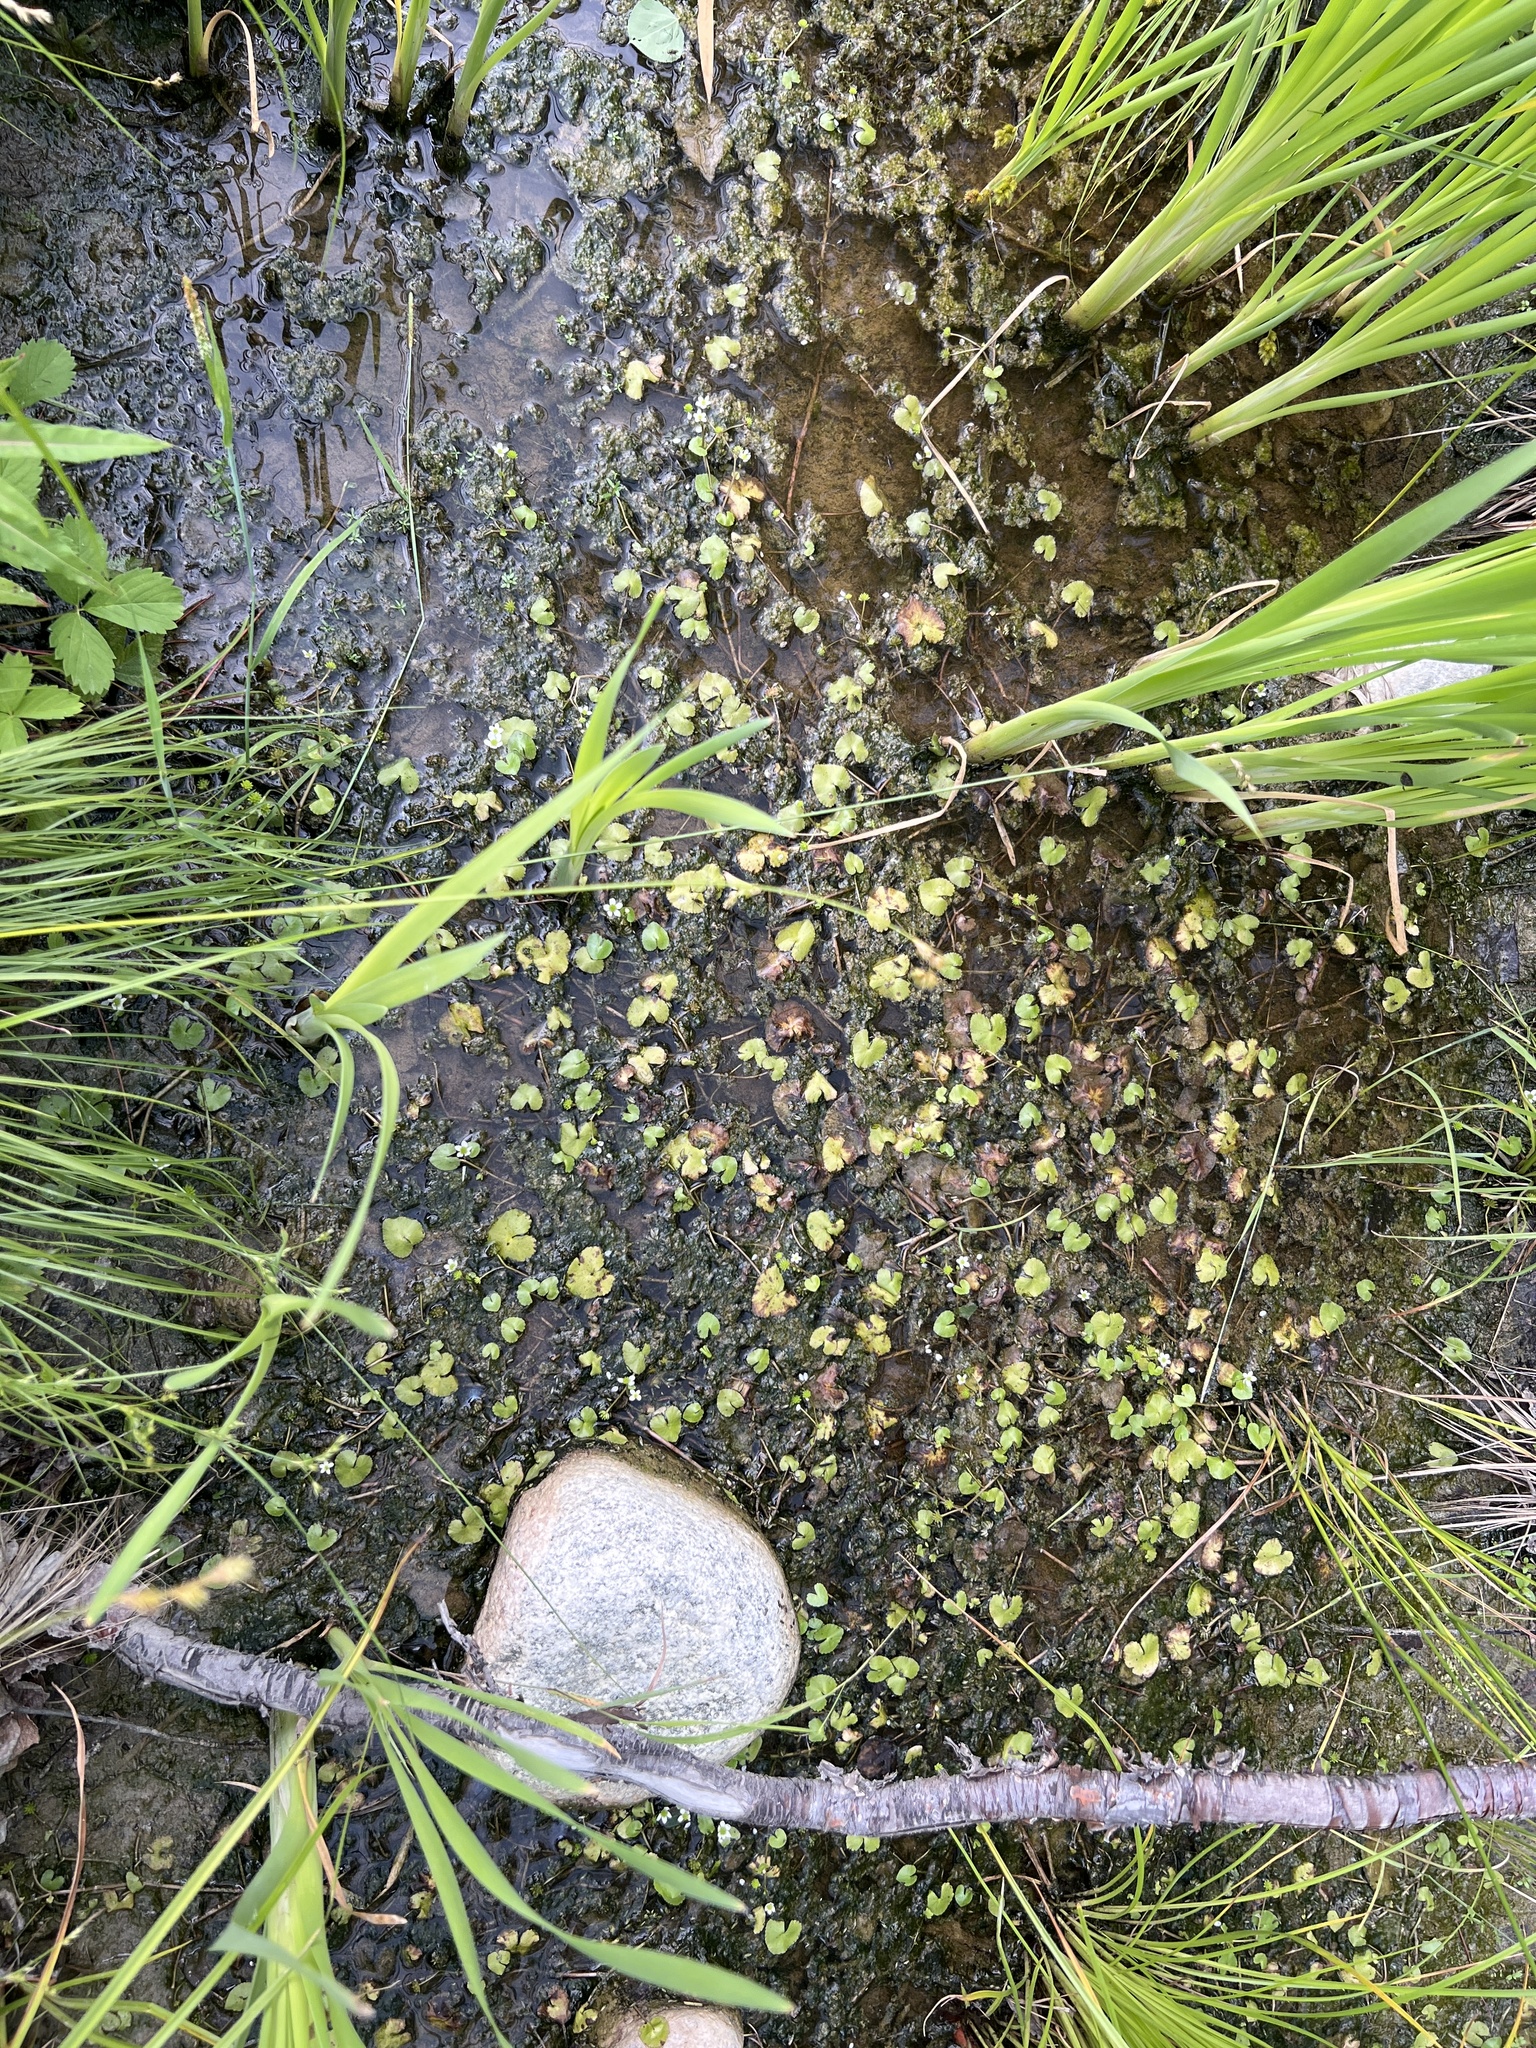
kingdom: Plantae
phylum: Tracheophyta
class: Magnoliopsida
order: Ranunculales
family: Ranunculaceae
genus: Caltha
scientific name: Caltha natans
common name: Floating marsh marigold
